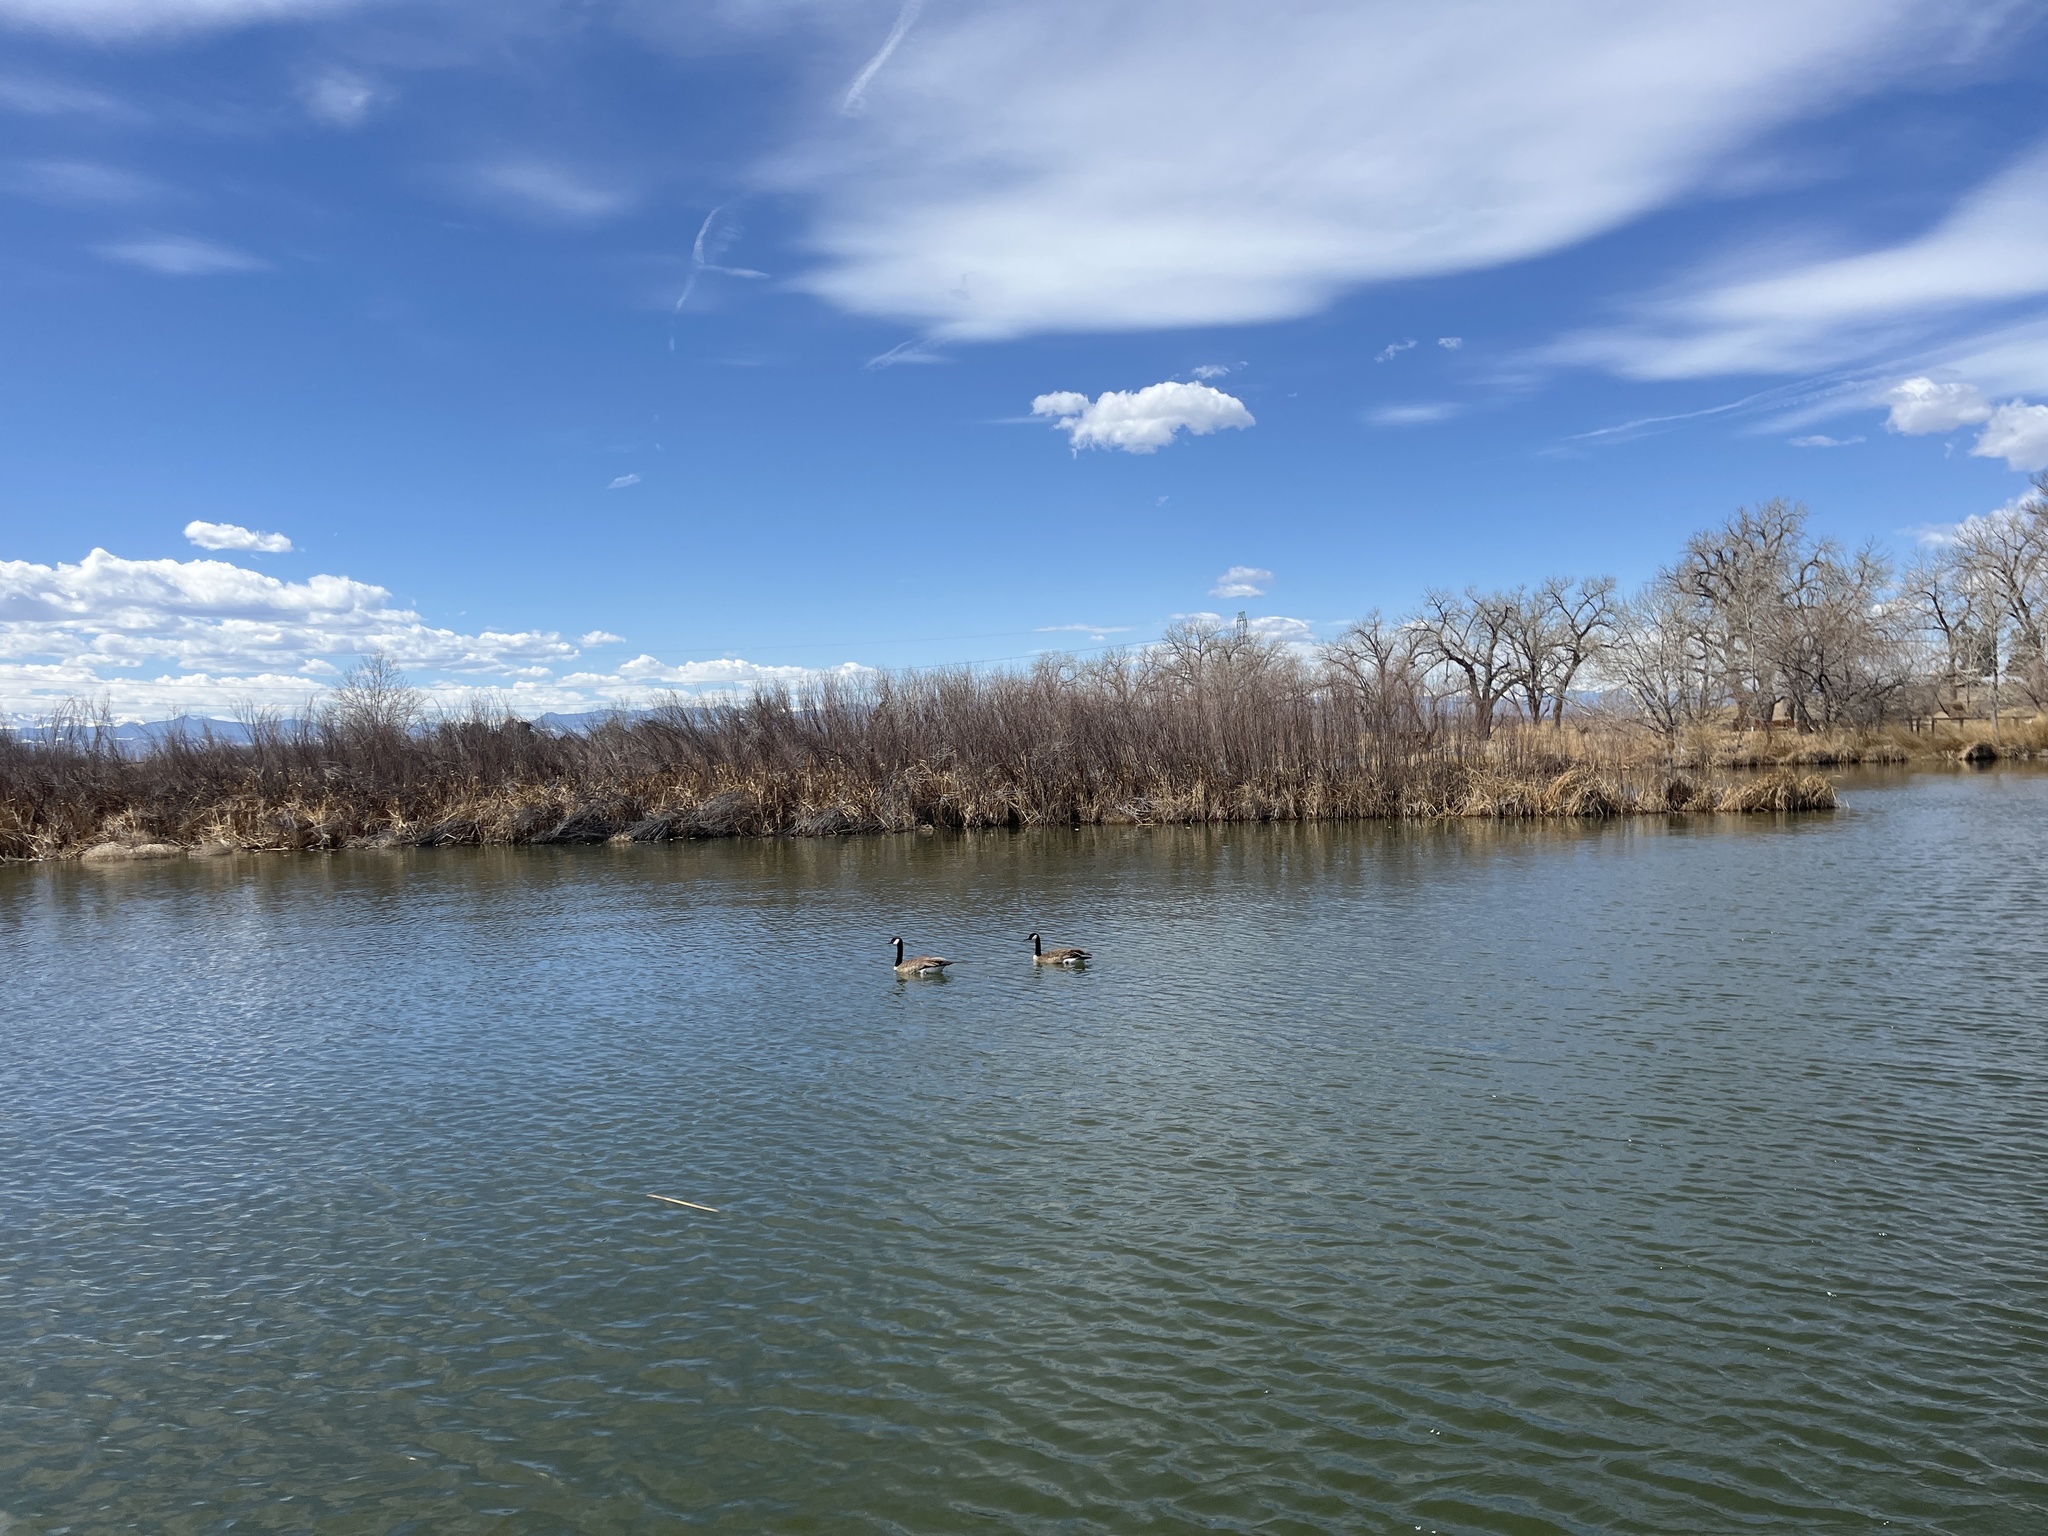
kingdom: Animalia
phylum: Chordata
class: Aves
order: Anseriformes
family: Anatidae
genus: Branta
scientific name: Branta canadensis
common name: Canada goose
